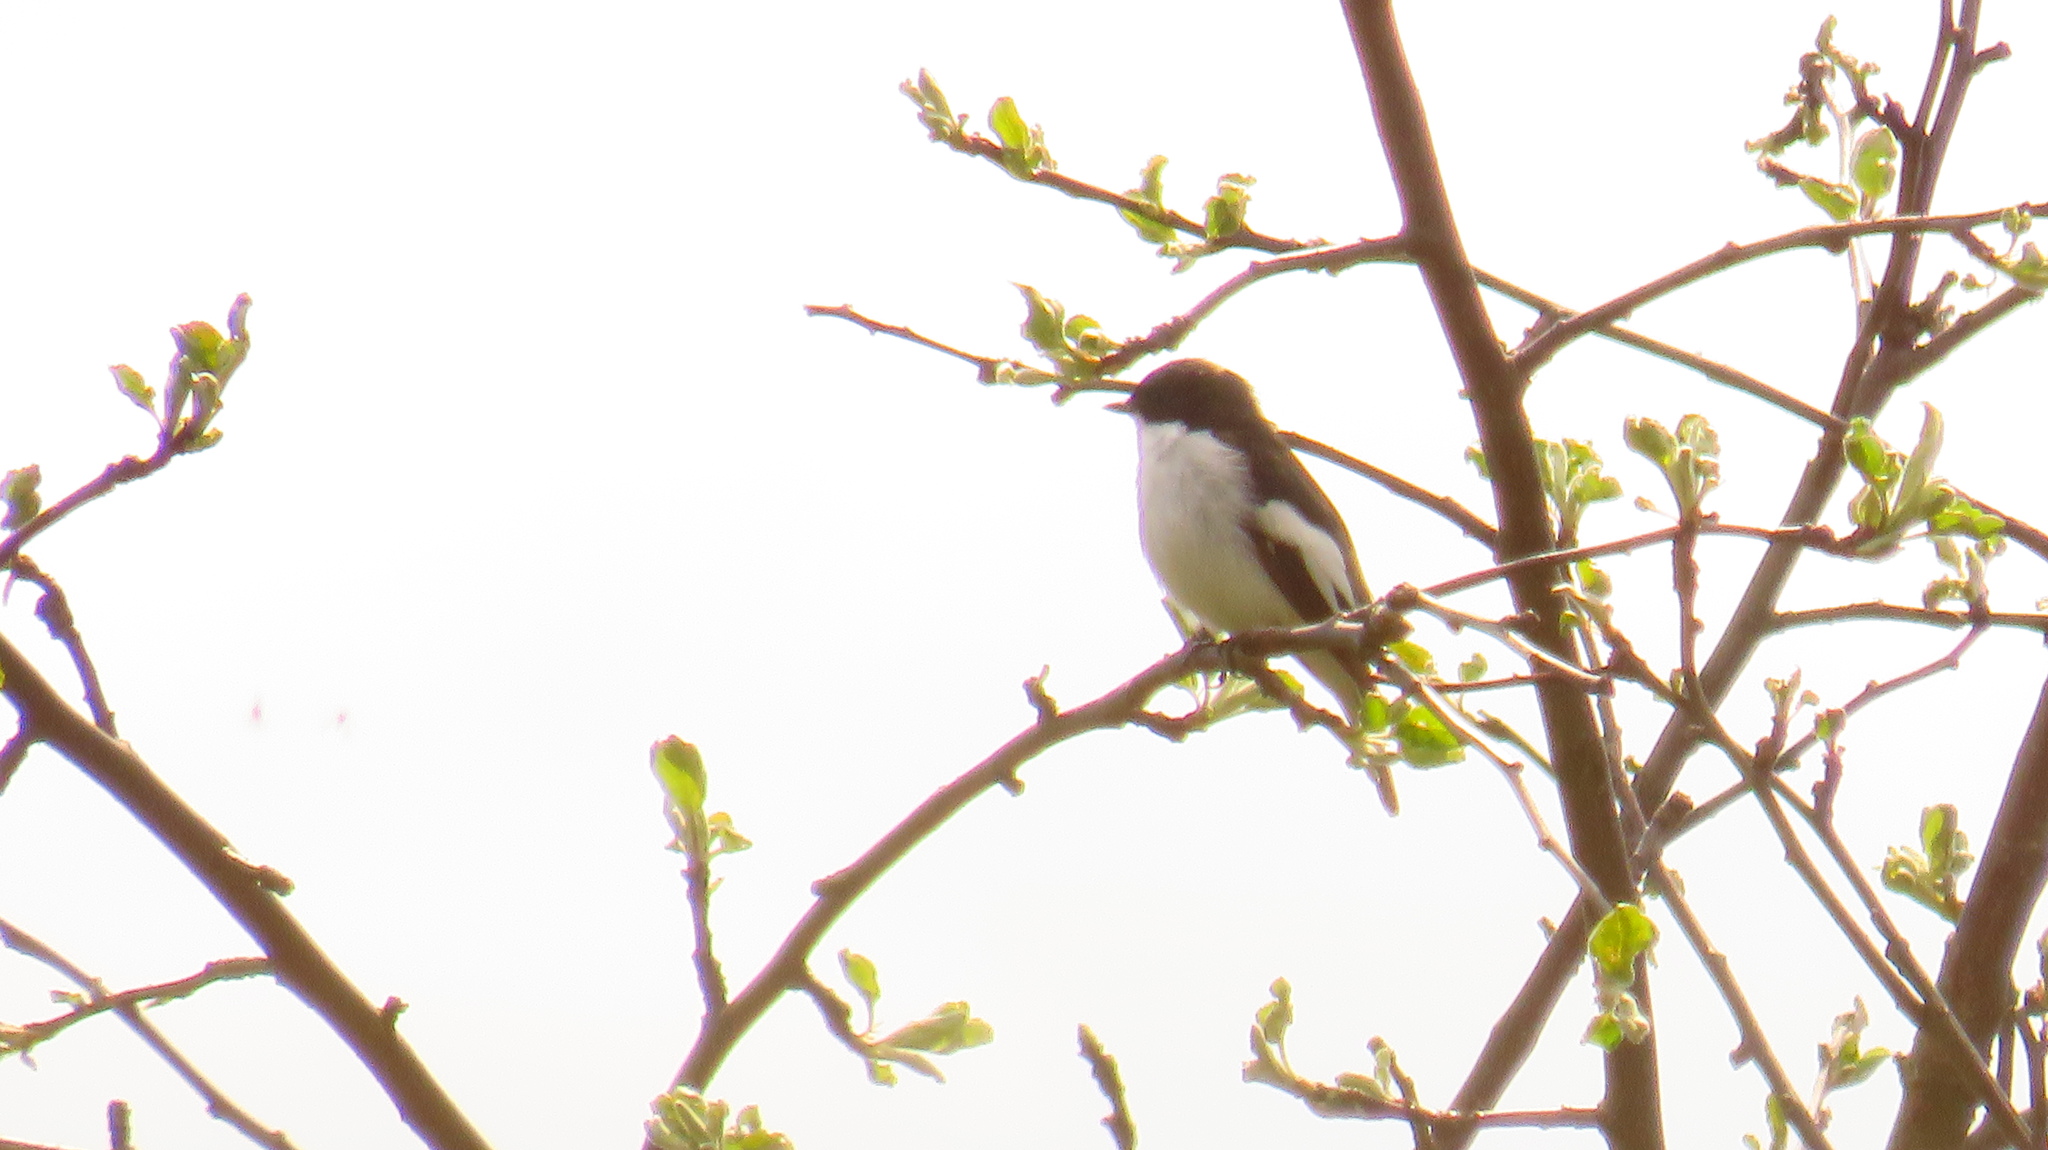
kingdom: Animalia
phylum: Chordata
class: Aves
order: Passeriformes
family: Muscicapidae
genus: Ficedula
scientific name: Ficedula hypoleuca
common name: European pied flycatcher
